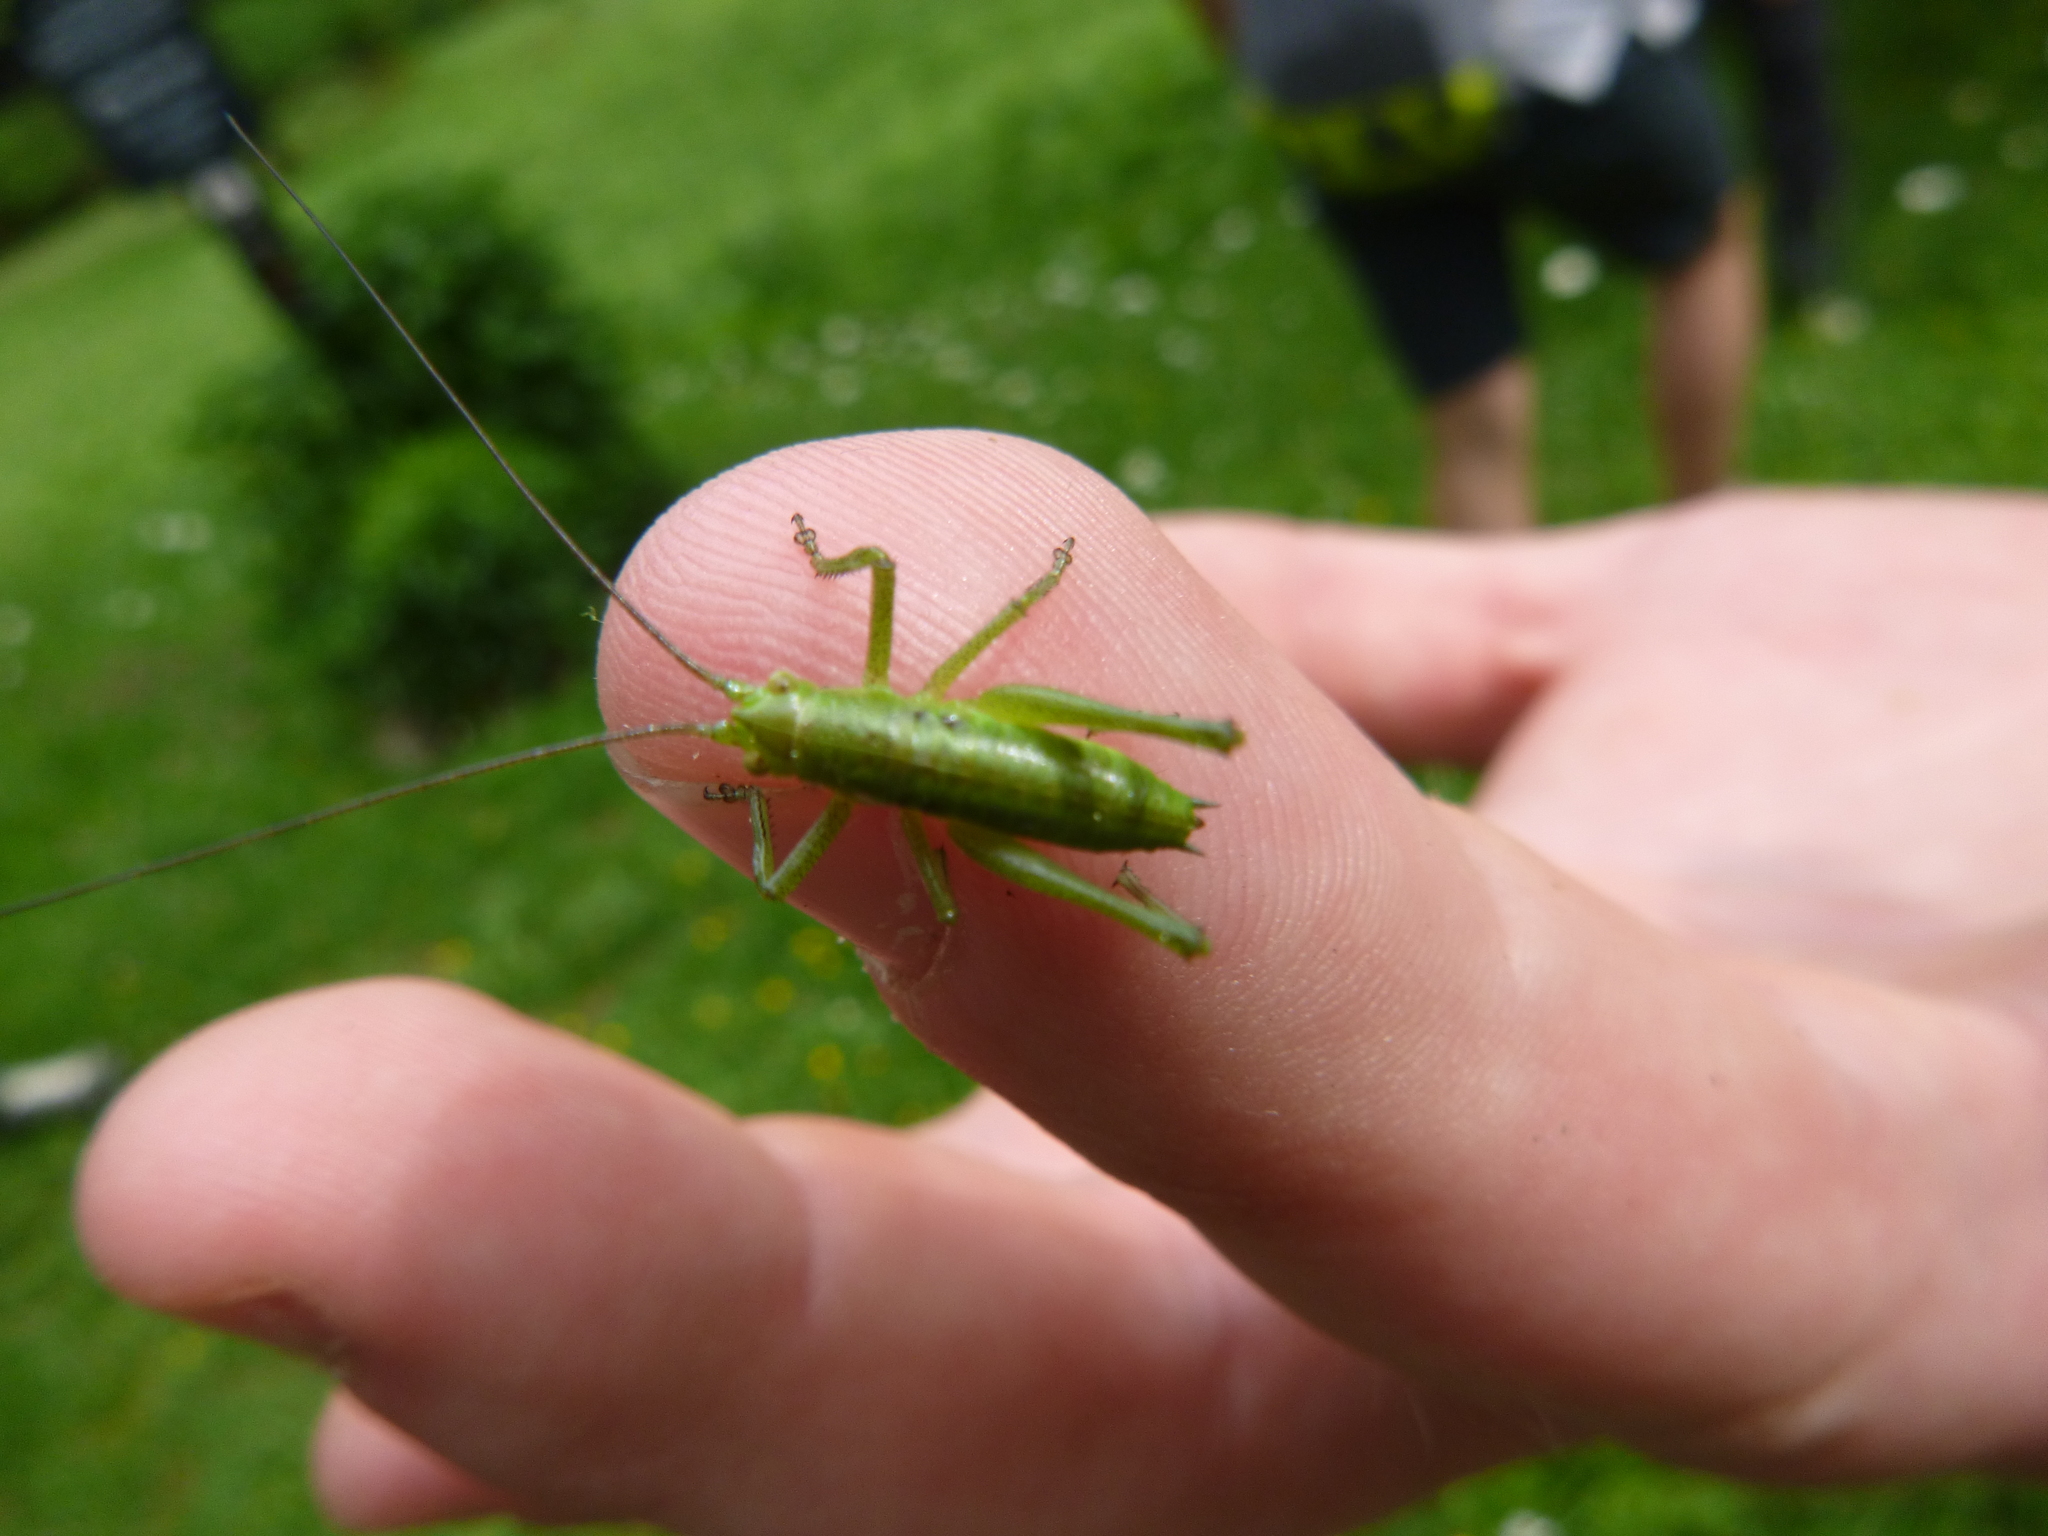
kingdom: Animalia
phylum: Arthropoda
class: Insecta
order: Orthoptera
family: Tettigoniidae
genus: Tettigonia
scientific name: Tettigonia
